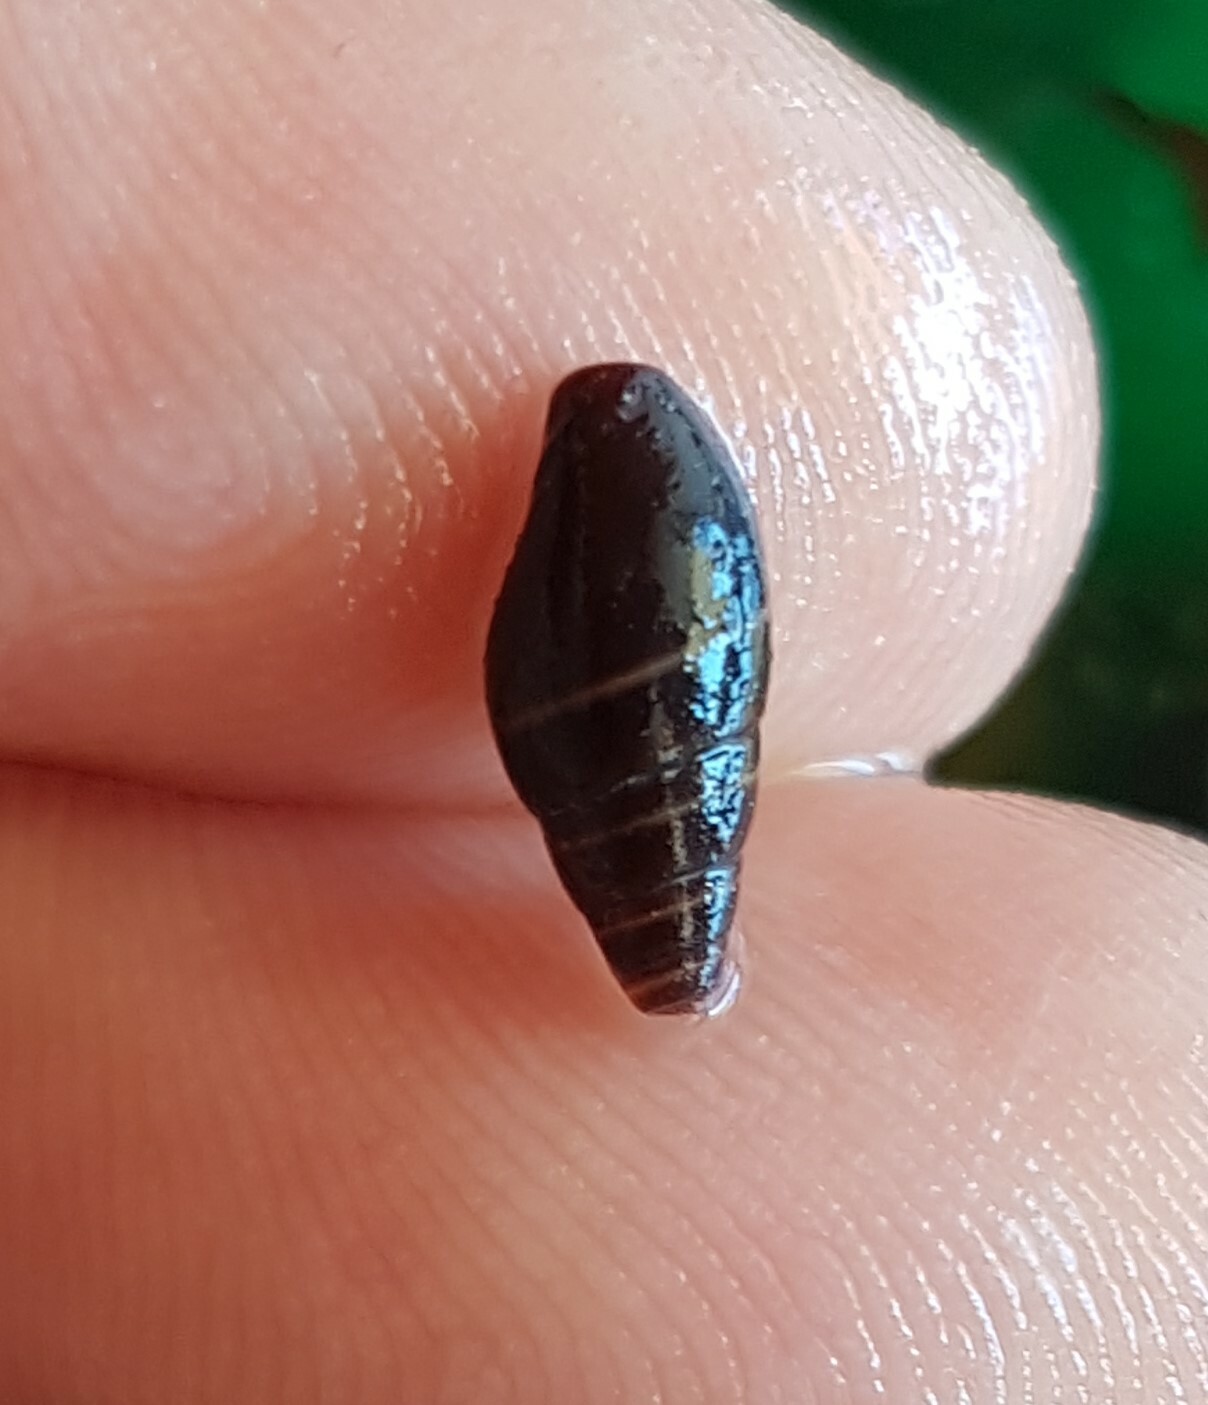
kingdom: Animalia
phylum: Mollusca
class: Gastropoda
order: Neogastropoda
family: Costellariidae
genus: Pusia
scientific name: Pusia ebenus
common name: Brown mitre
